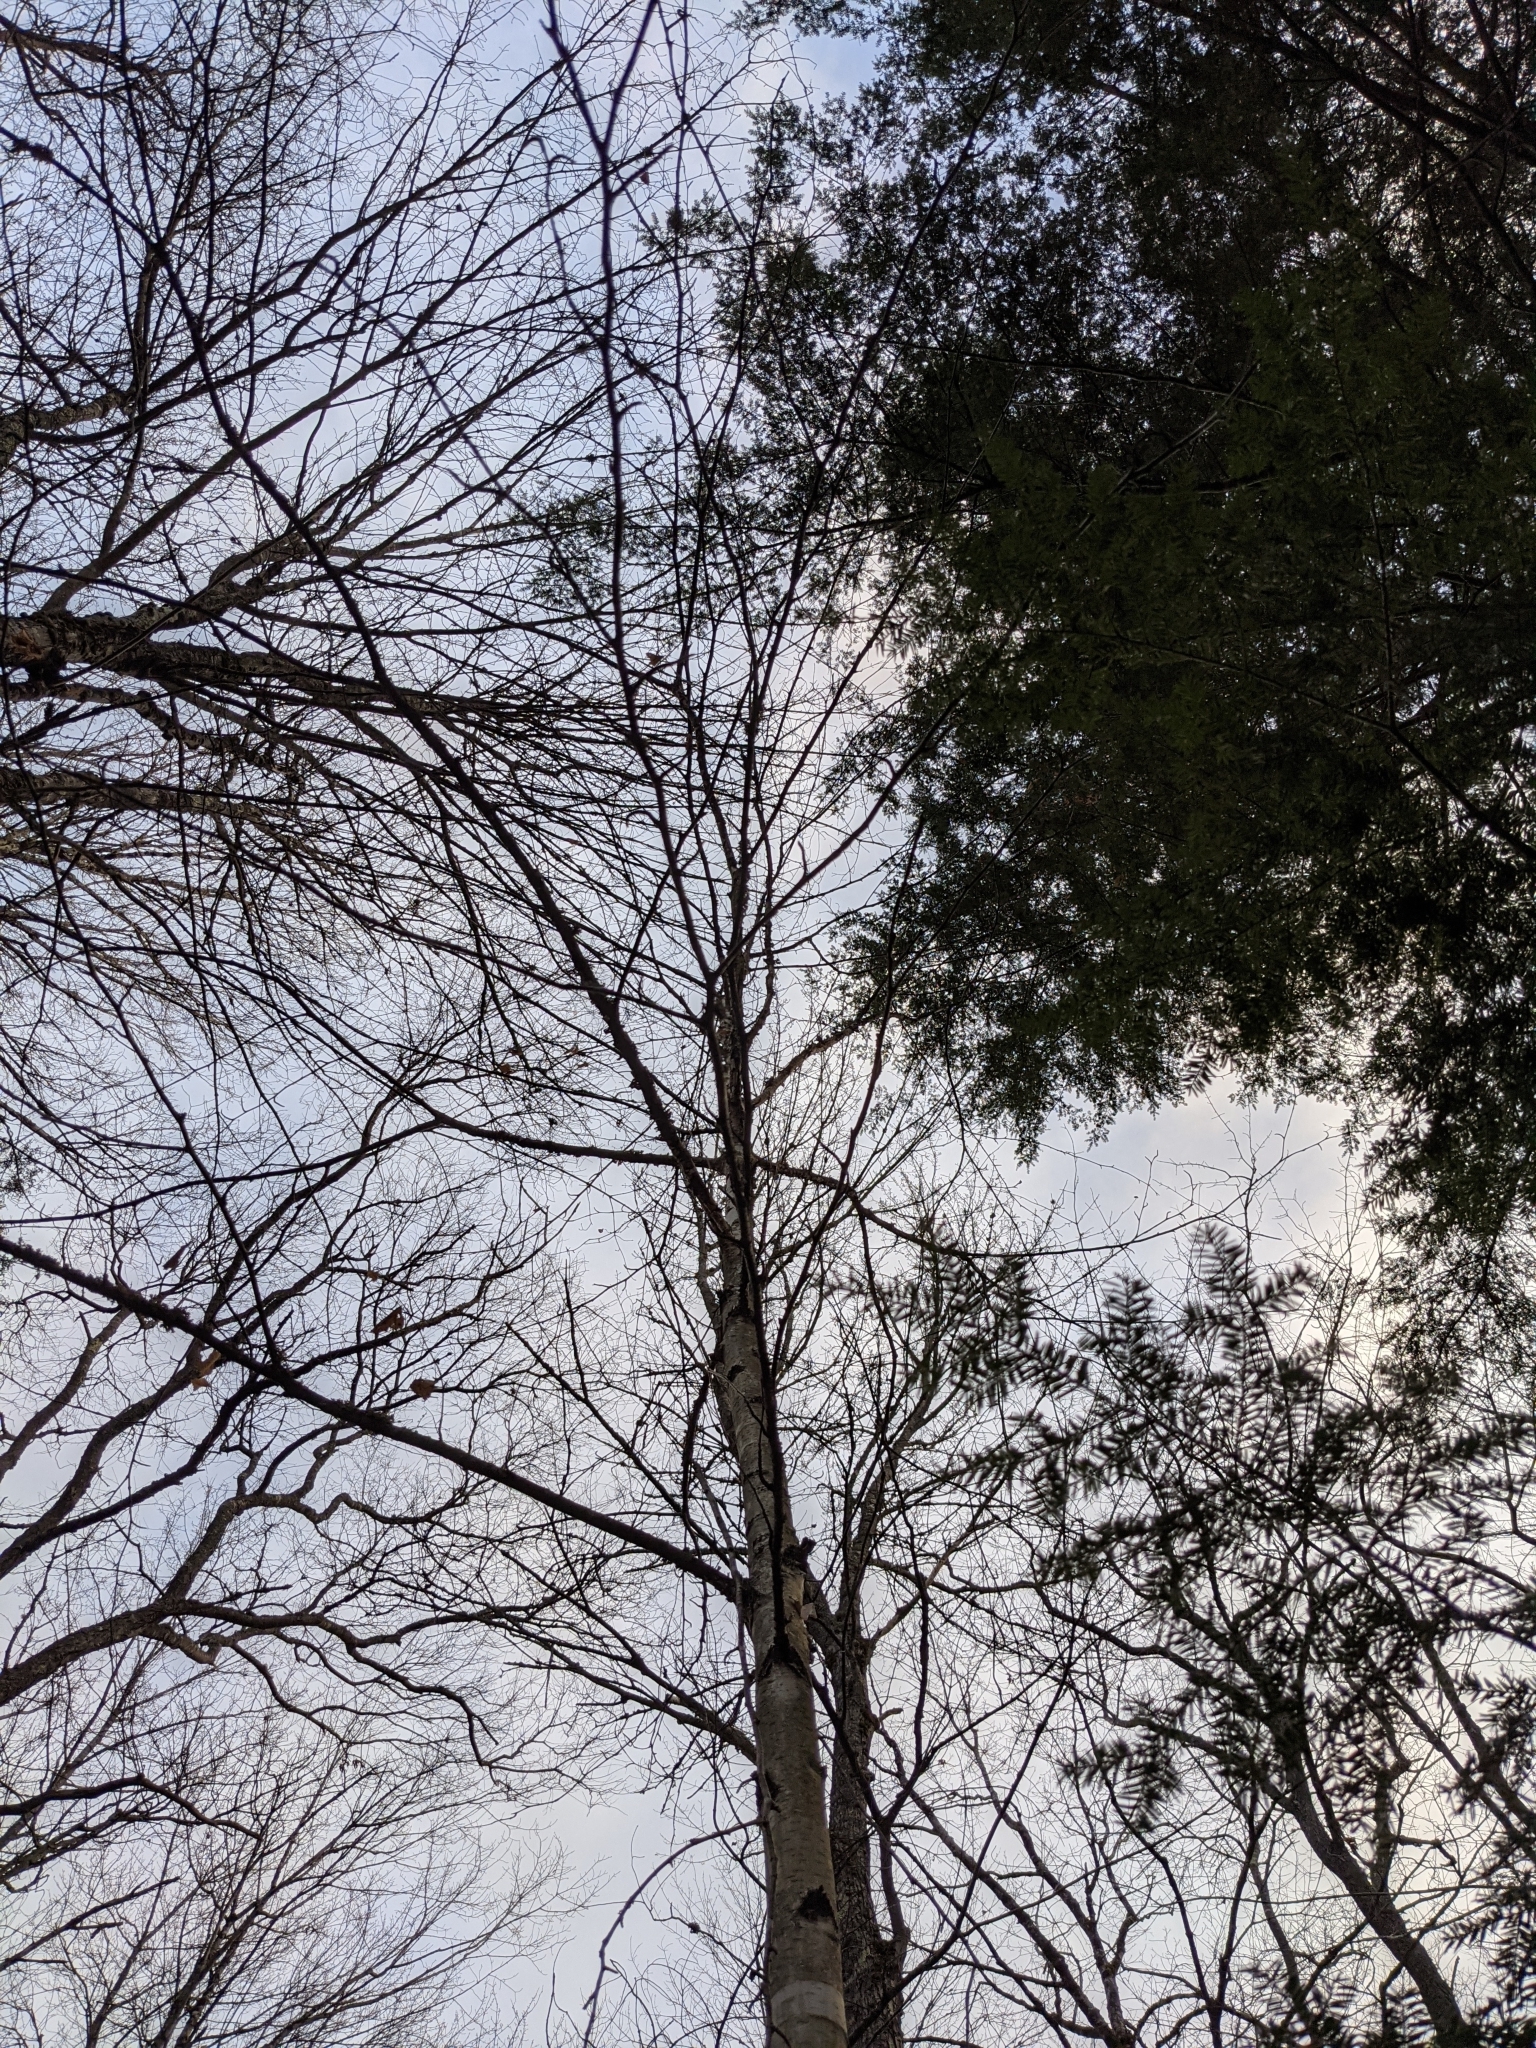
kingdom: Plantae
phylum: Tracheophyta
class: Magnoliopsida
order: Fagales
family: Betulaceae
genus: Betula
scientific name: Betula papyrifera
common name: Paper birch
